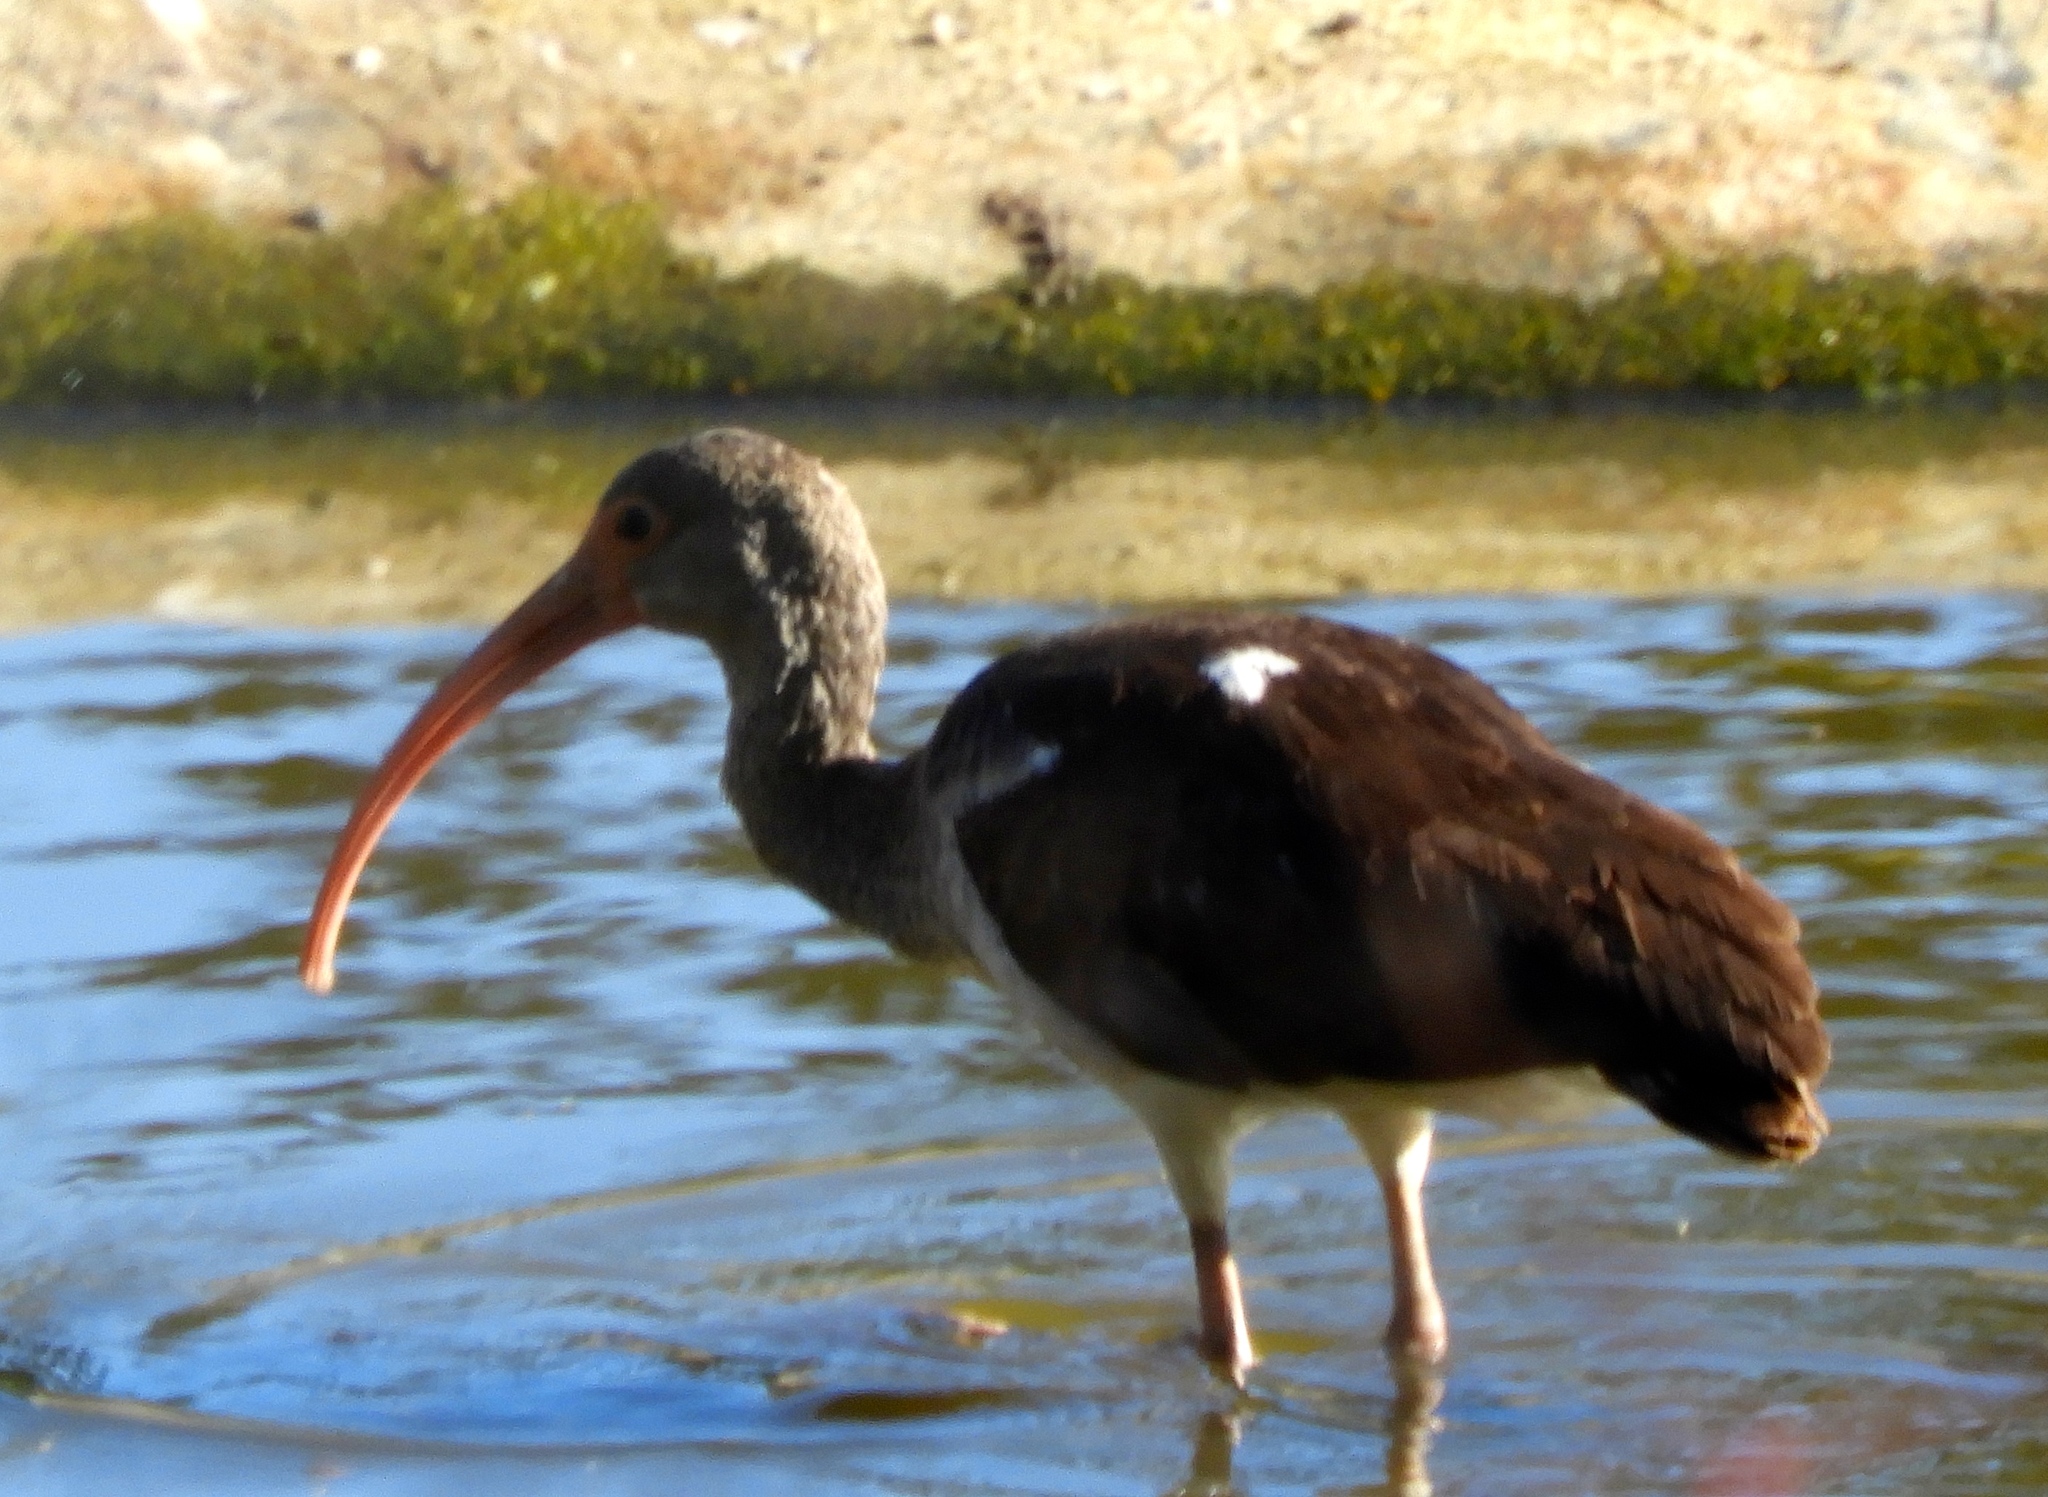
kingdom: Animalia
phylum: Chordata
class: Aves
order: Pelecaniformes
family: Threskiornithidae
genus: Eudocimus
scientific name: Eudocimus albus
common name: White ibis
